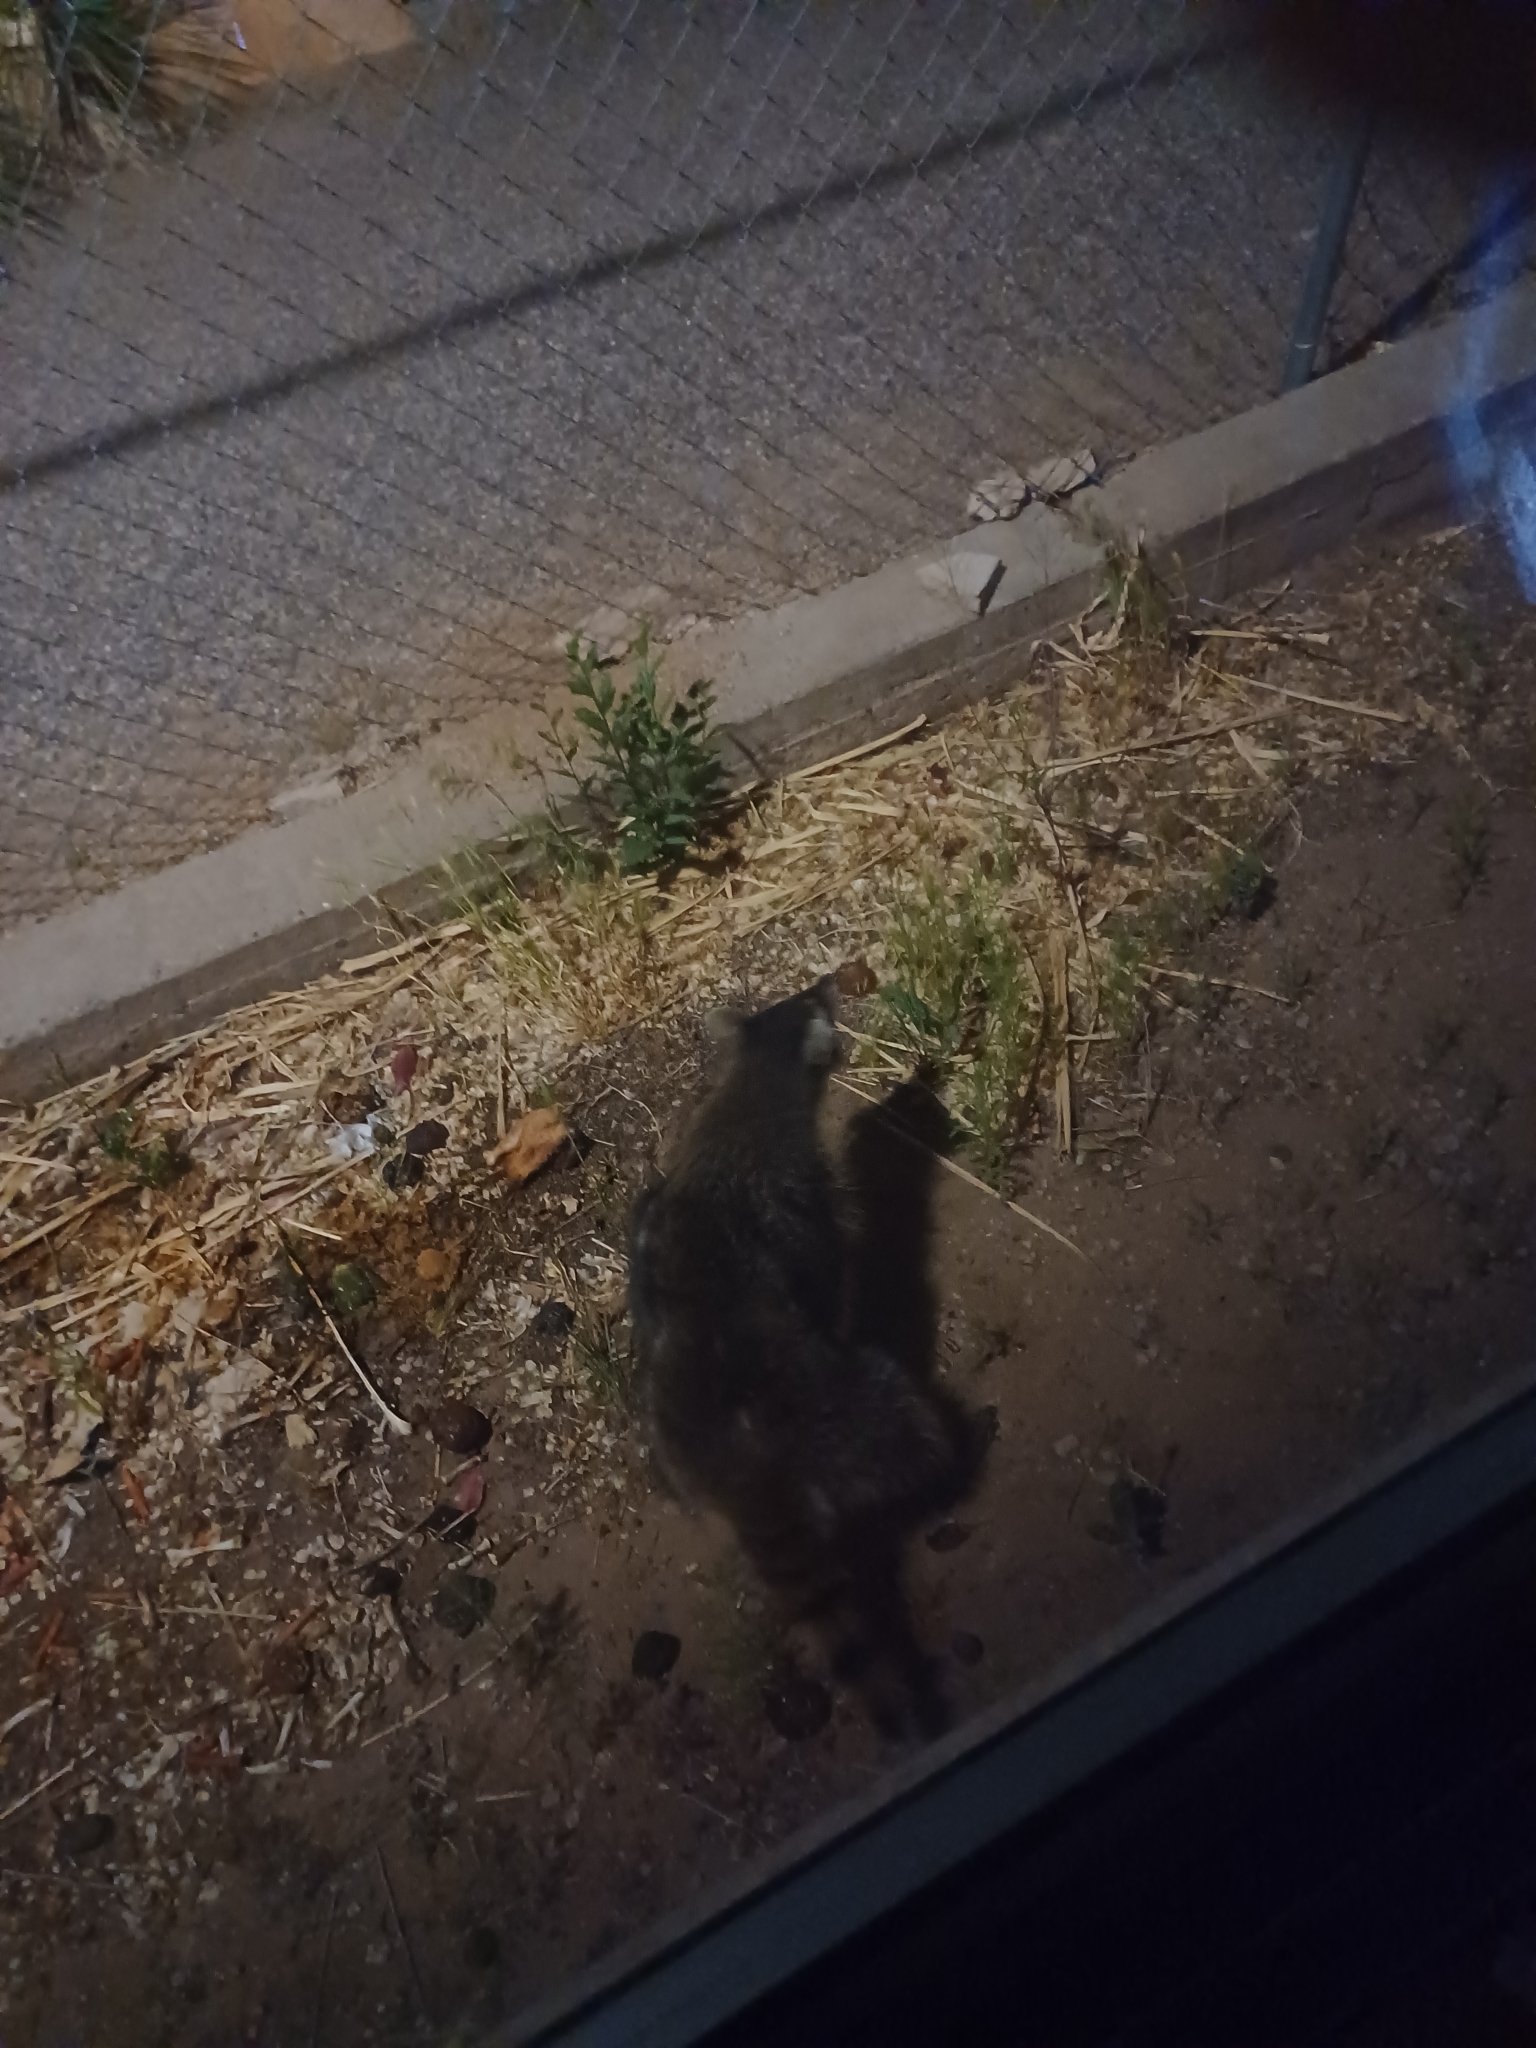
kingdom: Animalia
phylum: Chordata
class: Mammalia
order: Carnivora
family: Procyonidae
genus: Procyon
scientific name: Procyon lotor
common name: Raccoon
